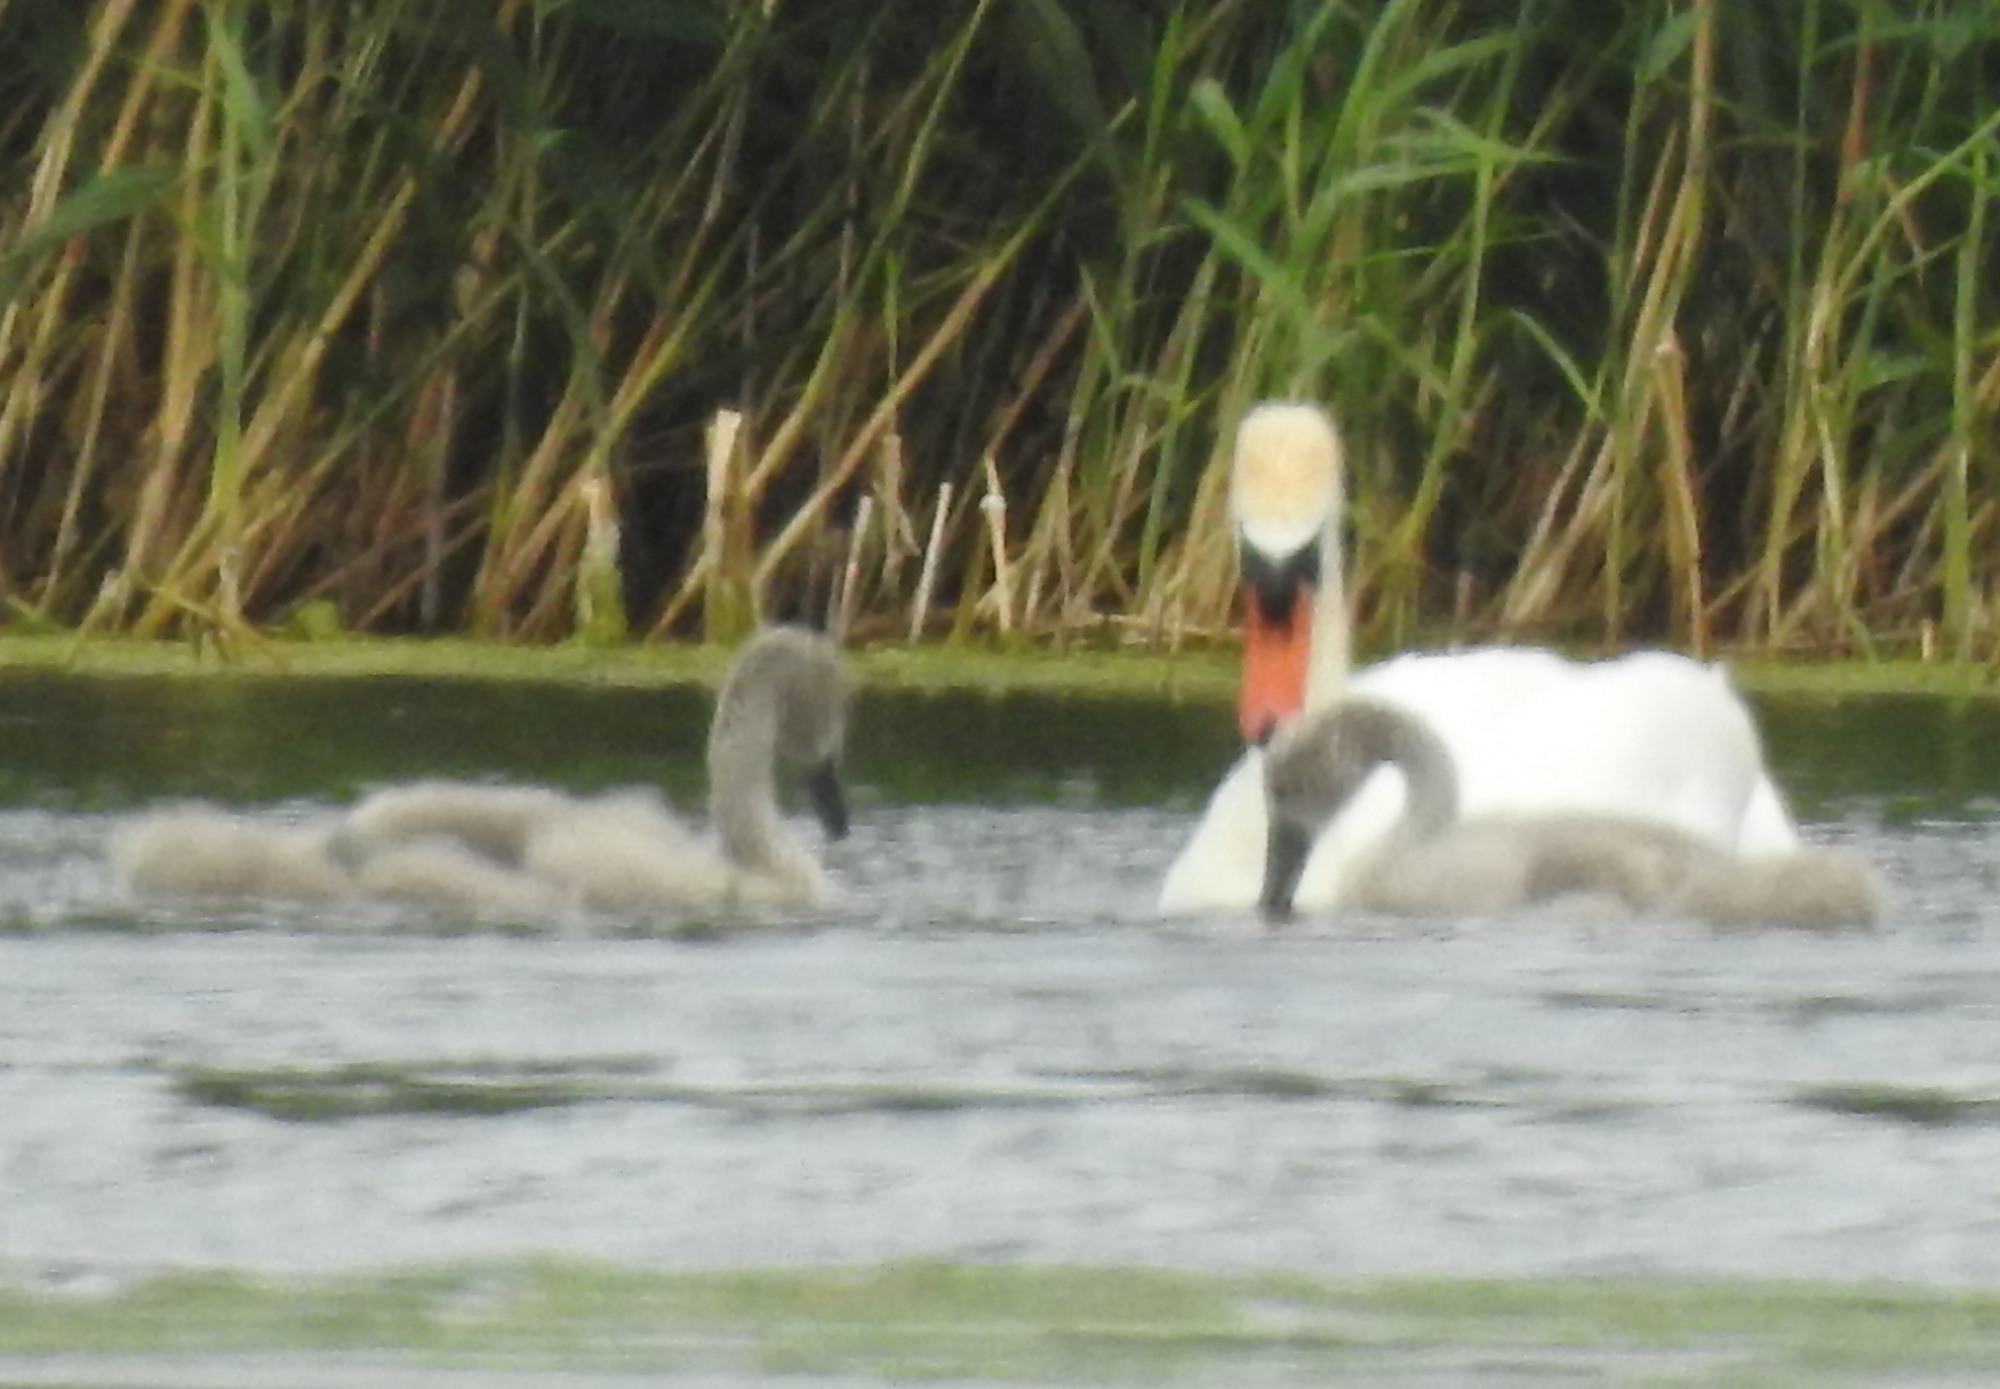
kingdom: Animalia
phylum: Chordata
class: Aves
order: Anseriformes
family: Anatidae
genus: Cygnus
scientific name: Cygnus olor
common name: Mute swan
